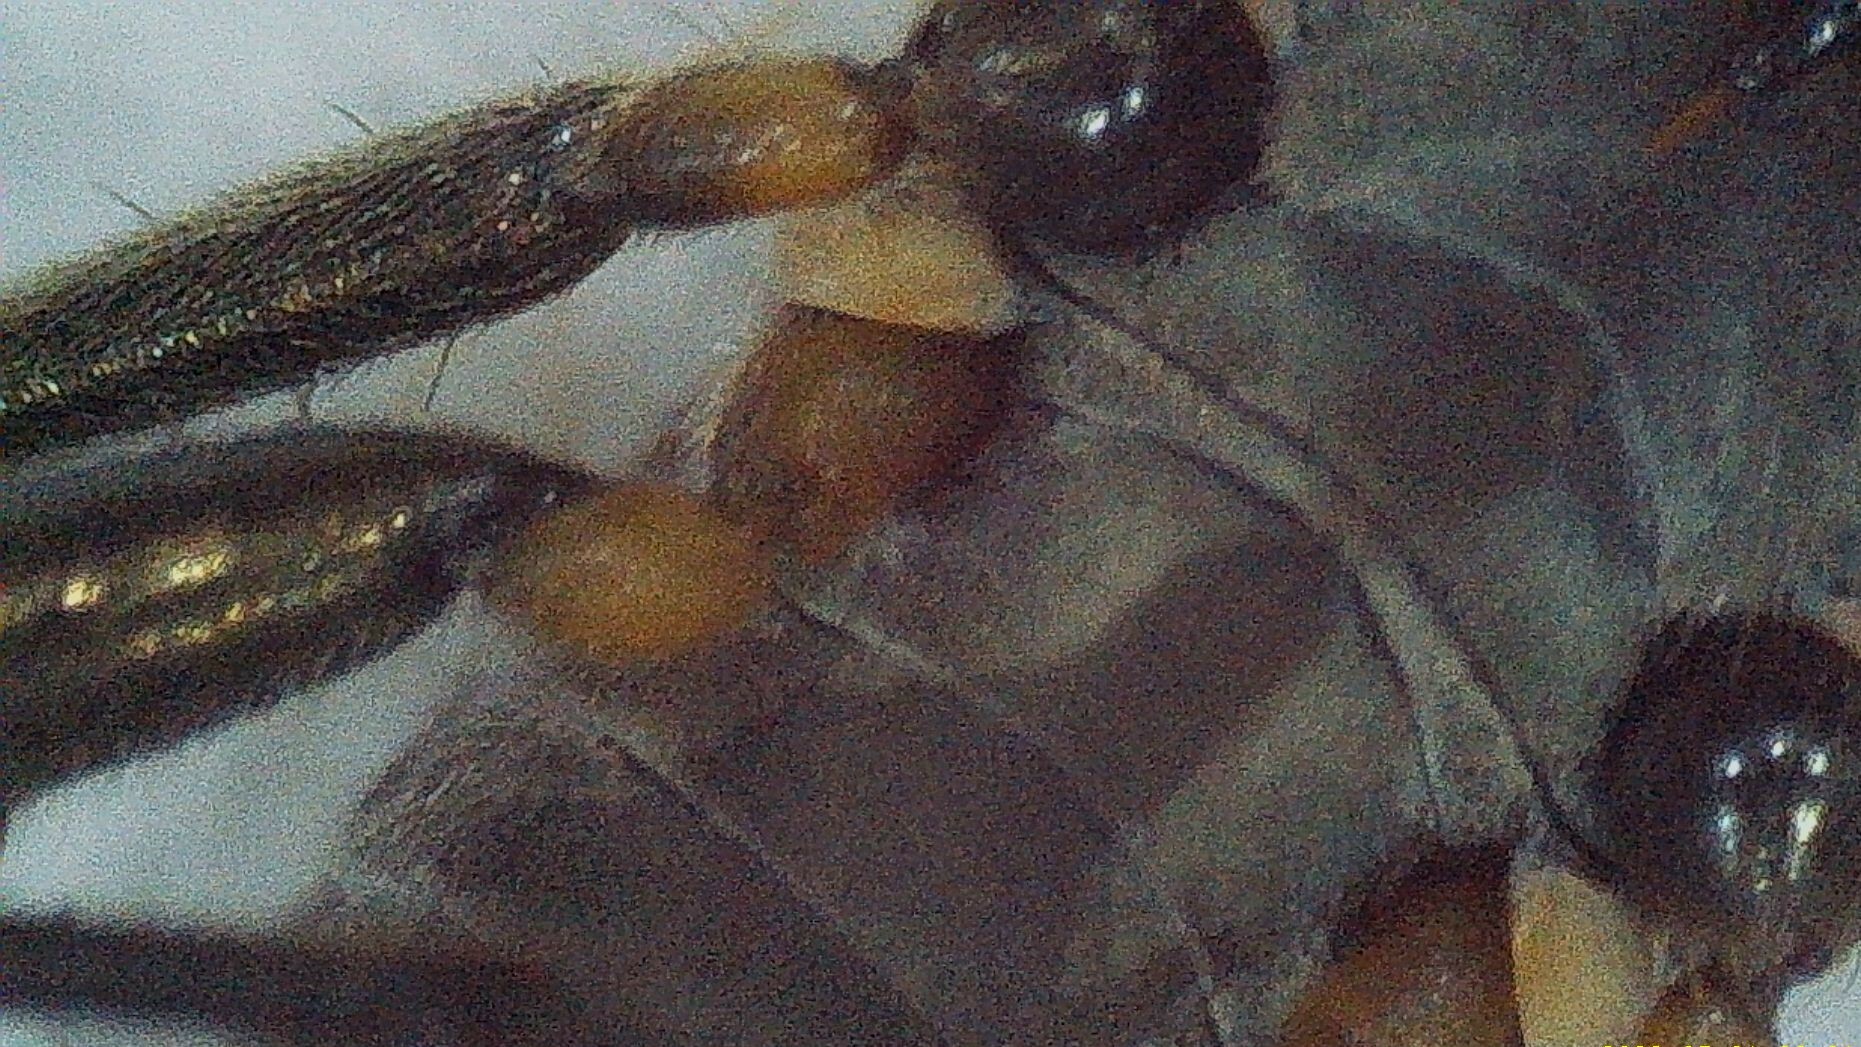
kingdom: Animalia
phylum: Arthropoda
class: Insecta
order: Hemiptera
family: Veliidae
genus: Rhagovelia
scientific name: Rhagovelia distincta
